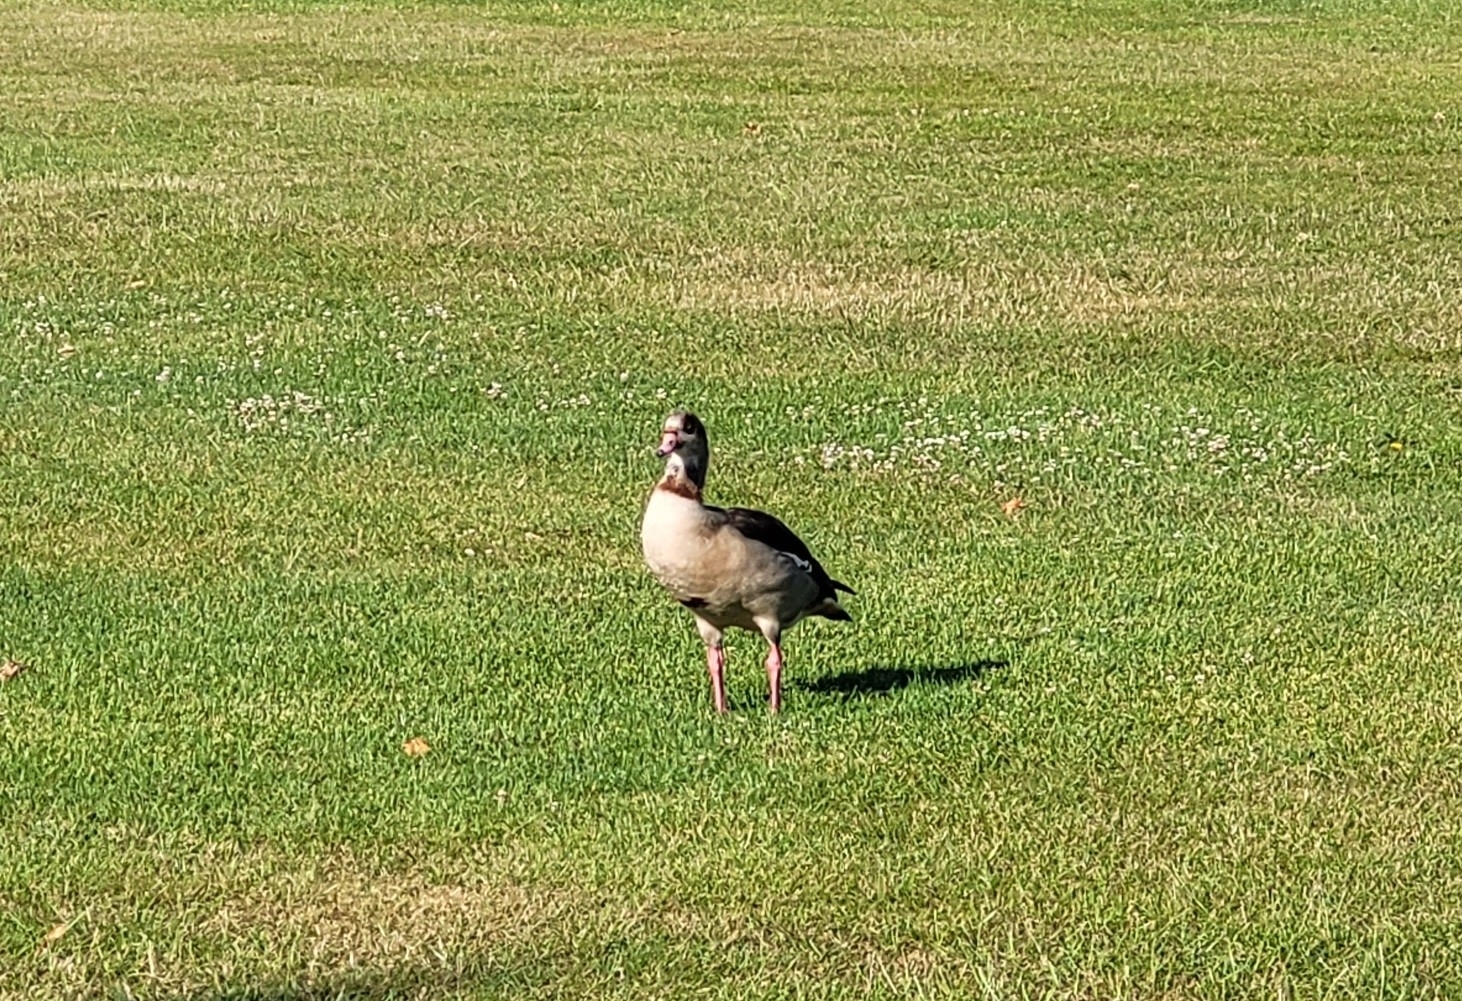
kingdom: Animalia
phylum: Chordata
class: Aves
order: Anseriformes
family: Anatidae
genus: Alopochen
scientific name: Alopochen aegyptiaca
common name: Egyptian goose
